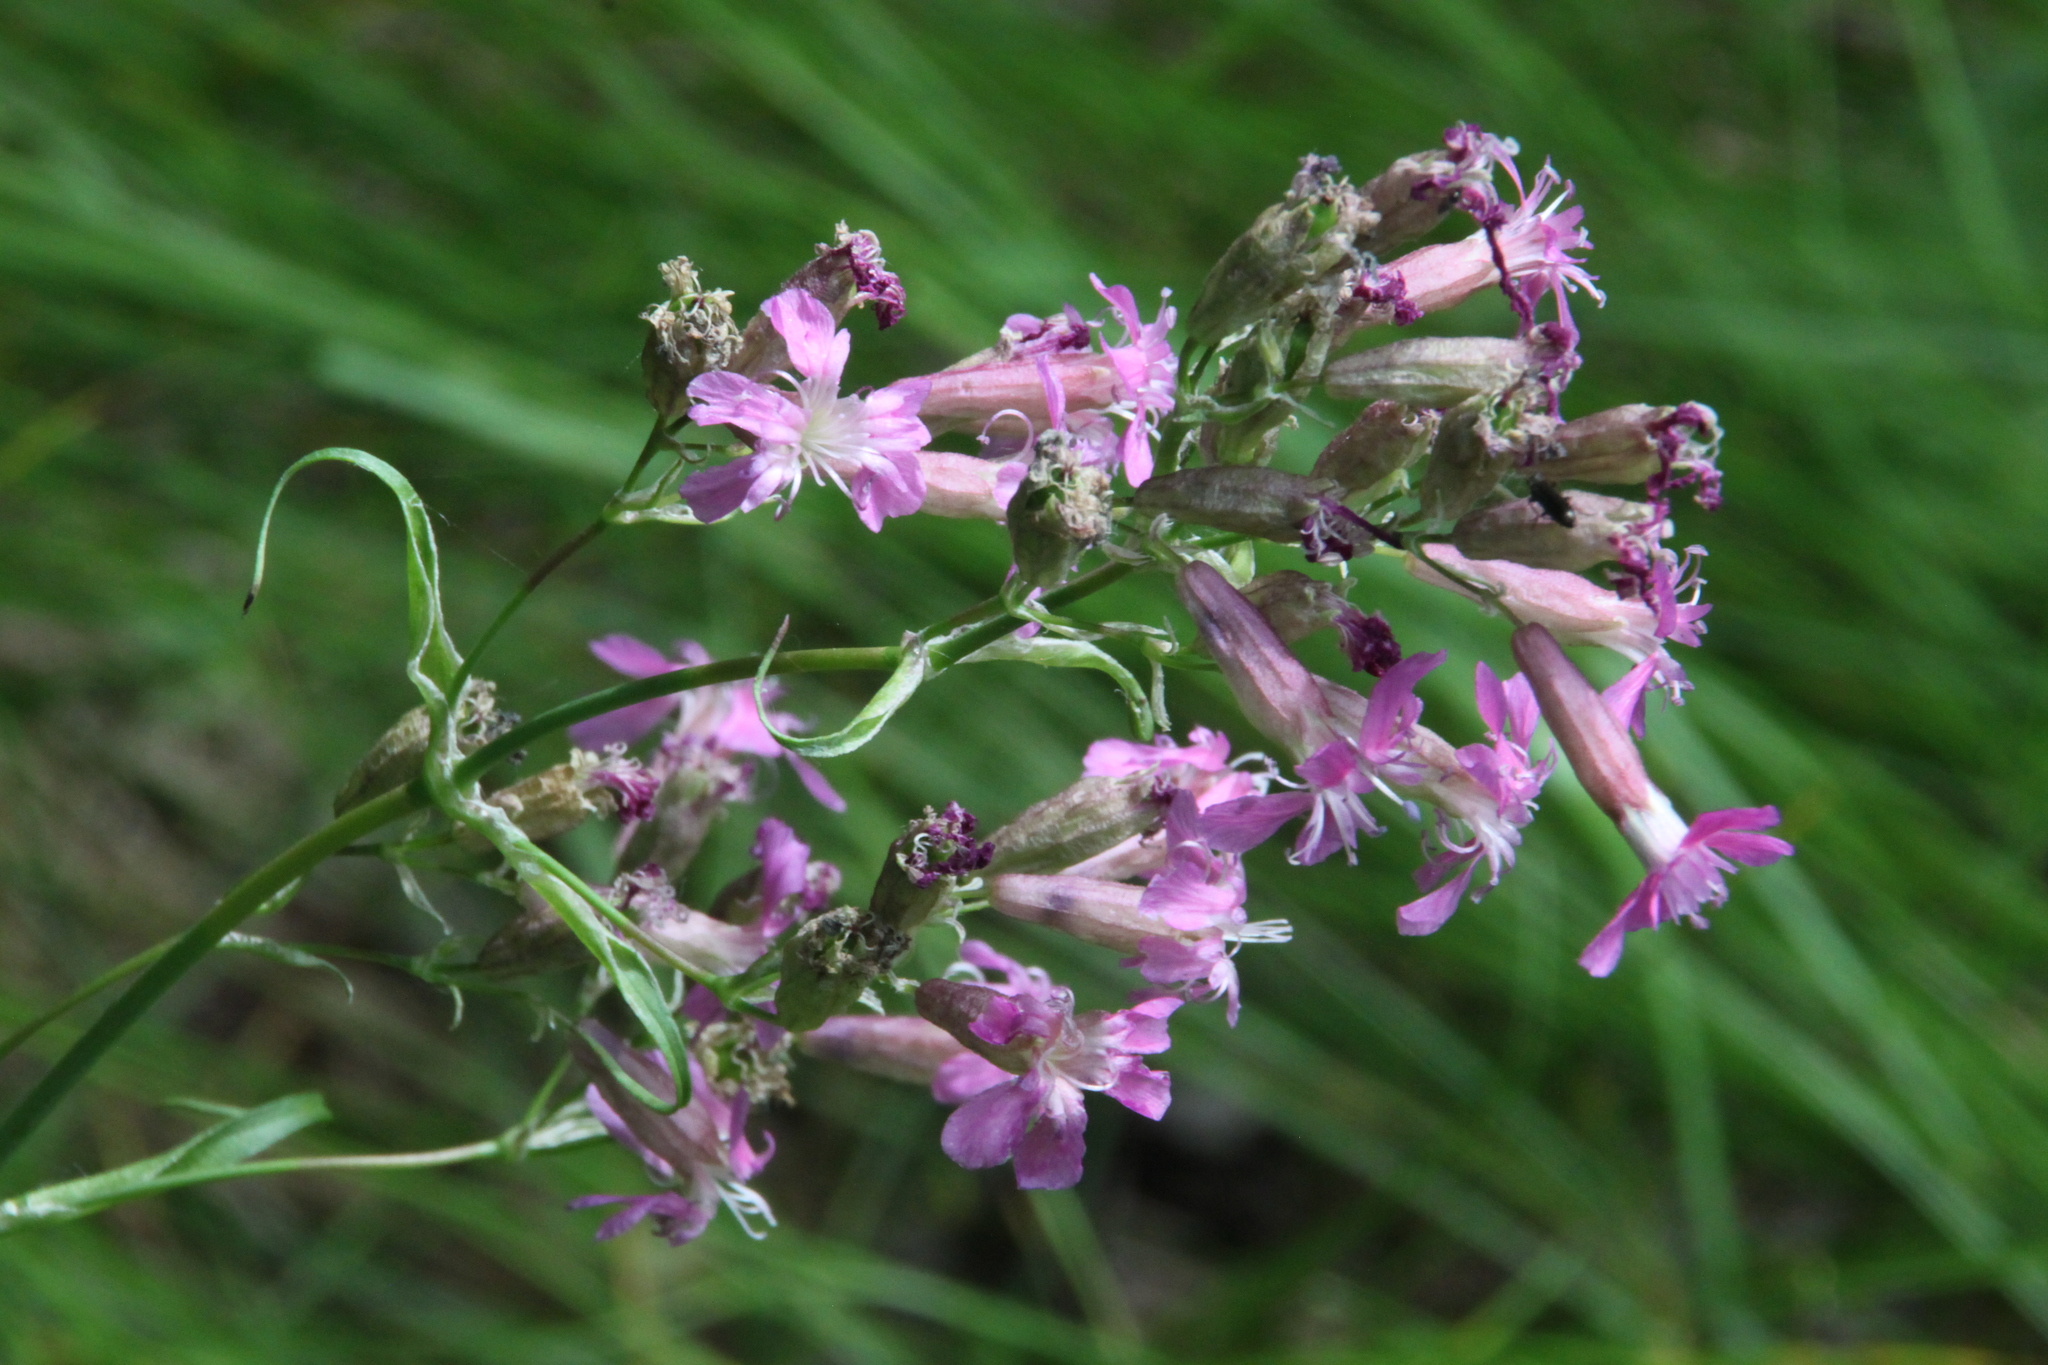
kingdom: Plantae
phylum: Tracheophyta
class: Magnoliopsida
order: Caryophyllales
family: Caryophyllaceae
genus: Viscaria
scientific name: Viscaria vulgaris
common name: Clammy campion
